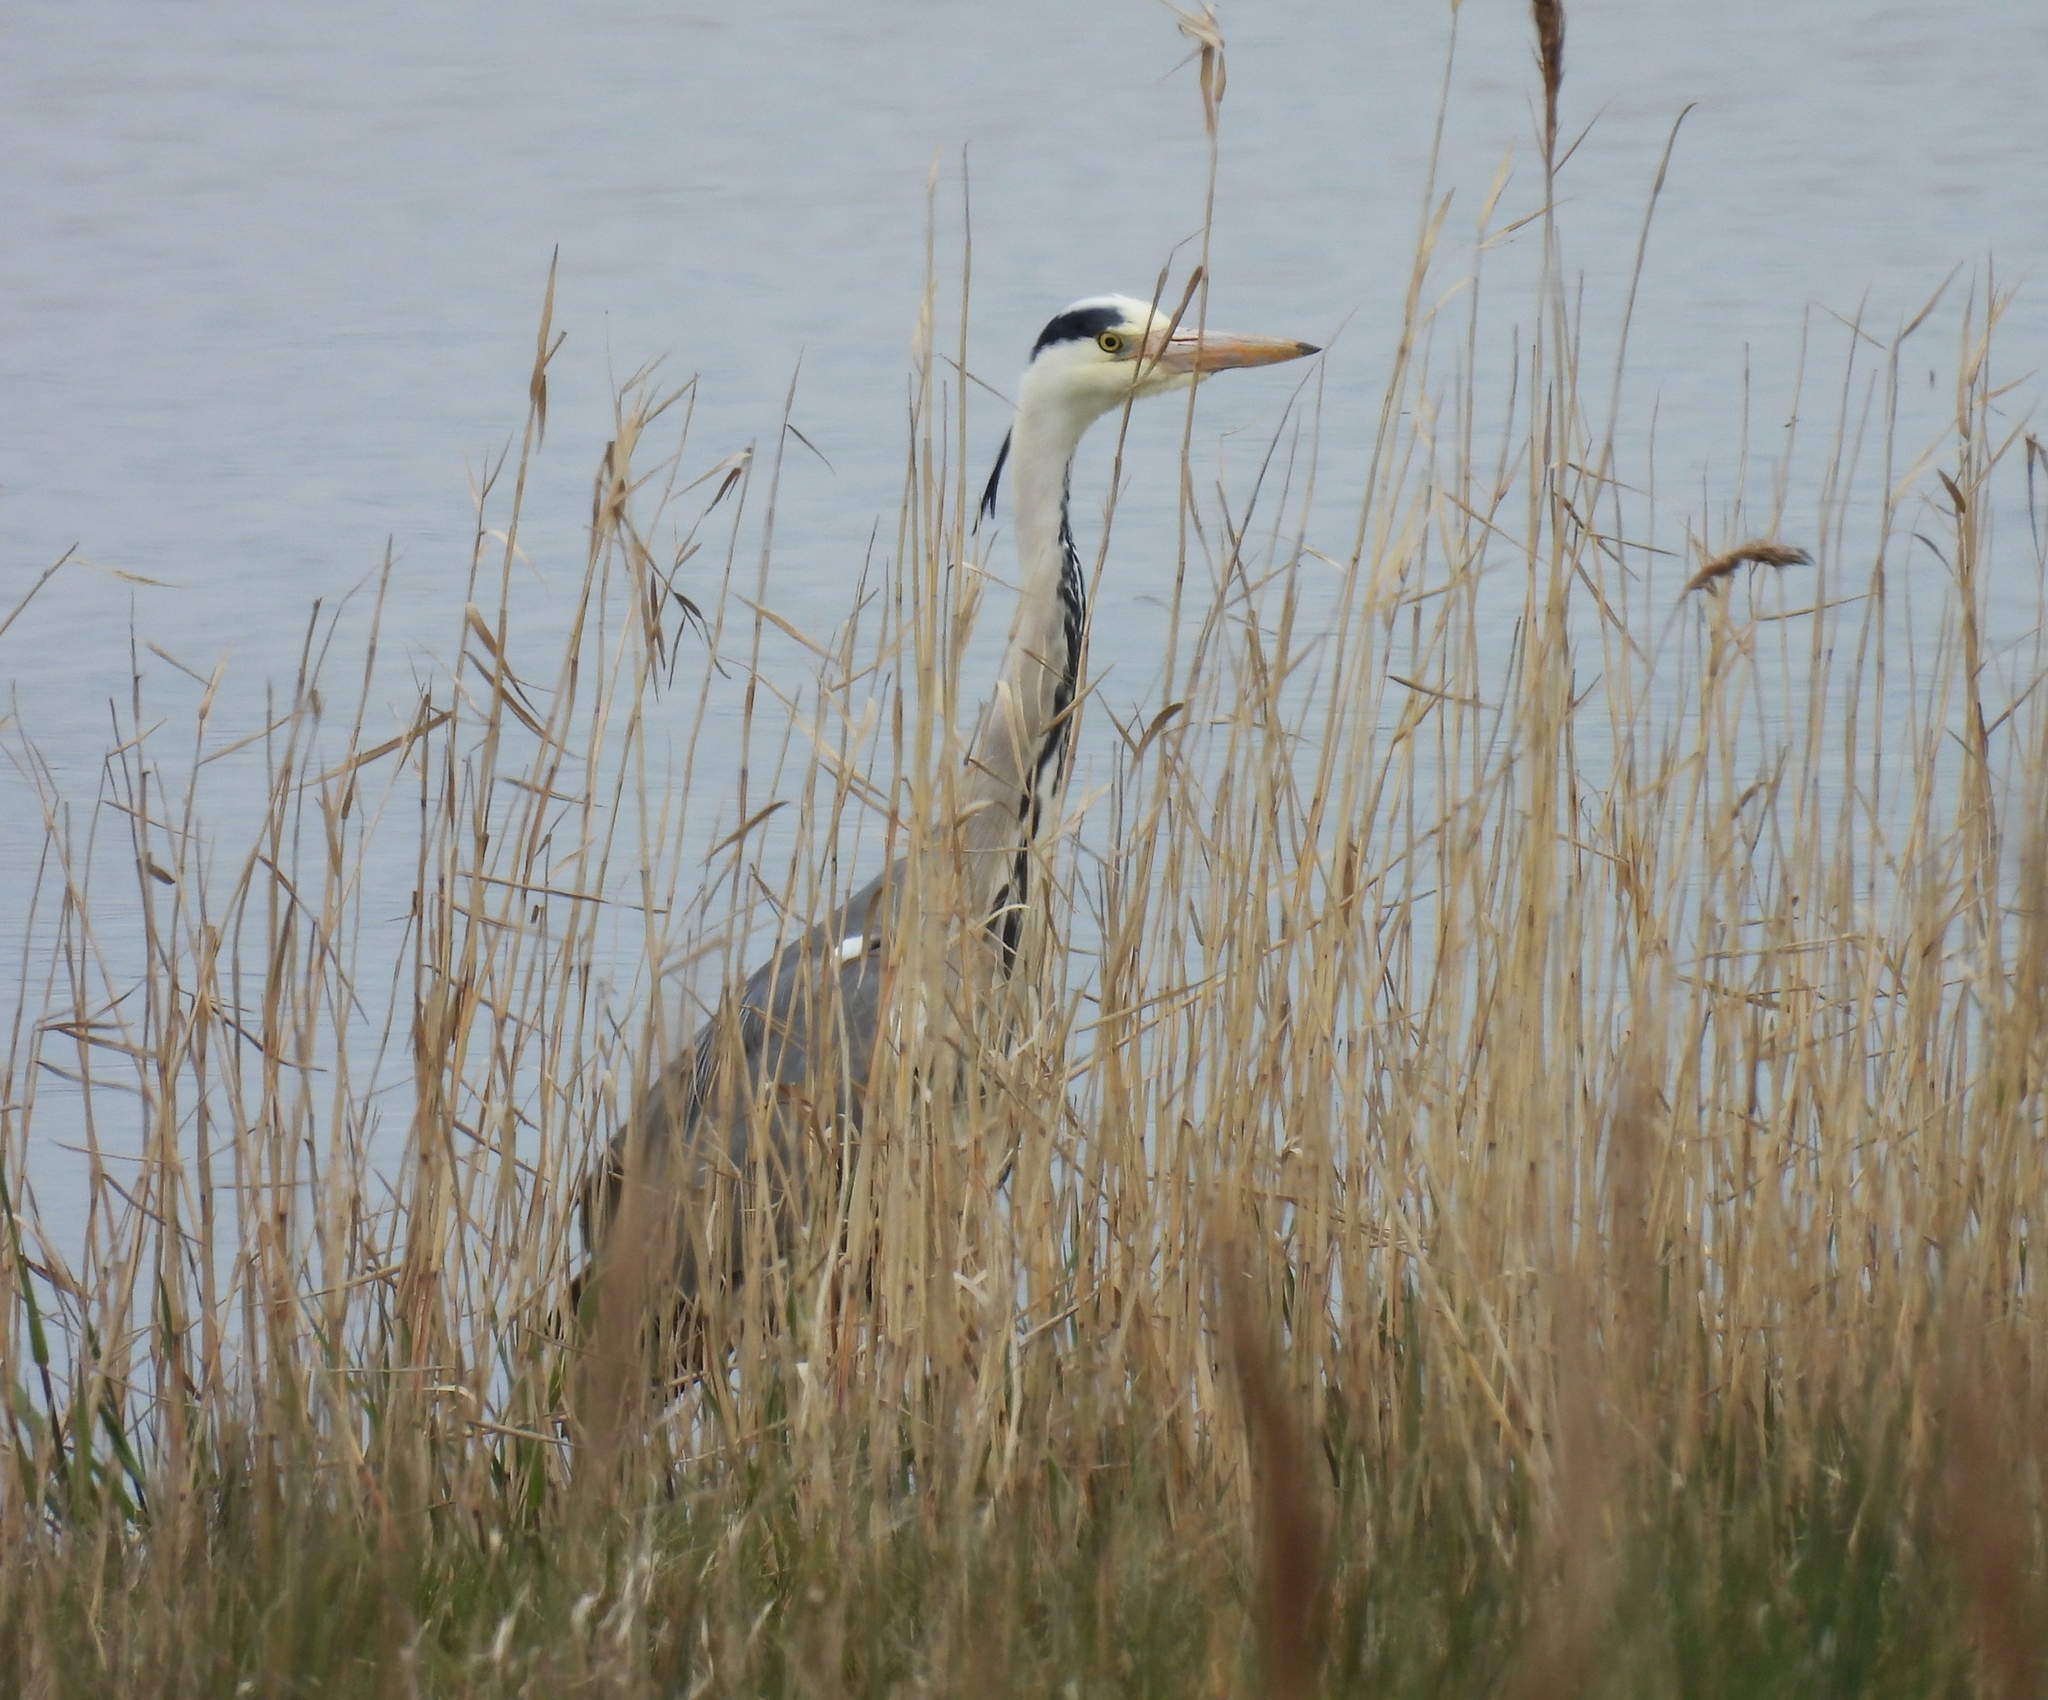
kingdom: Animalia
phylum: Chordata
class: Aves
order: Pelecaniformes
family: Ardeidae
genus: Ardea
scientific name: Ardea cinerea
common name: Grey heron
